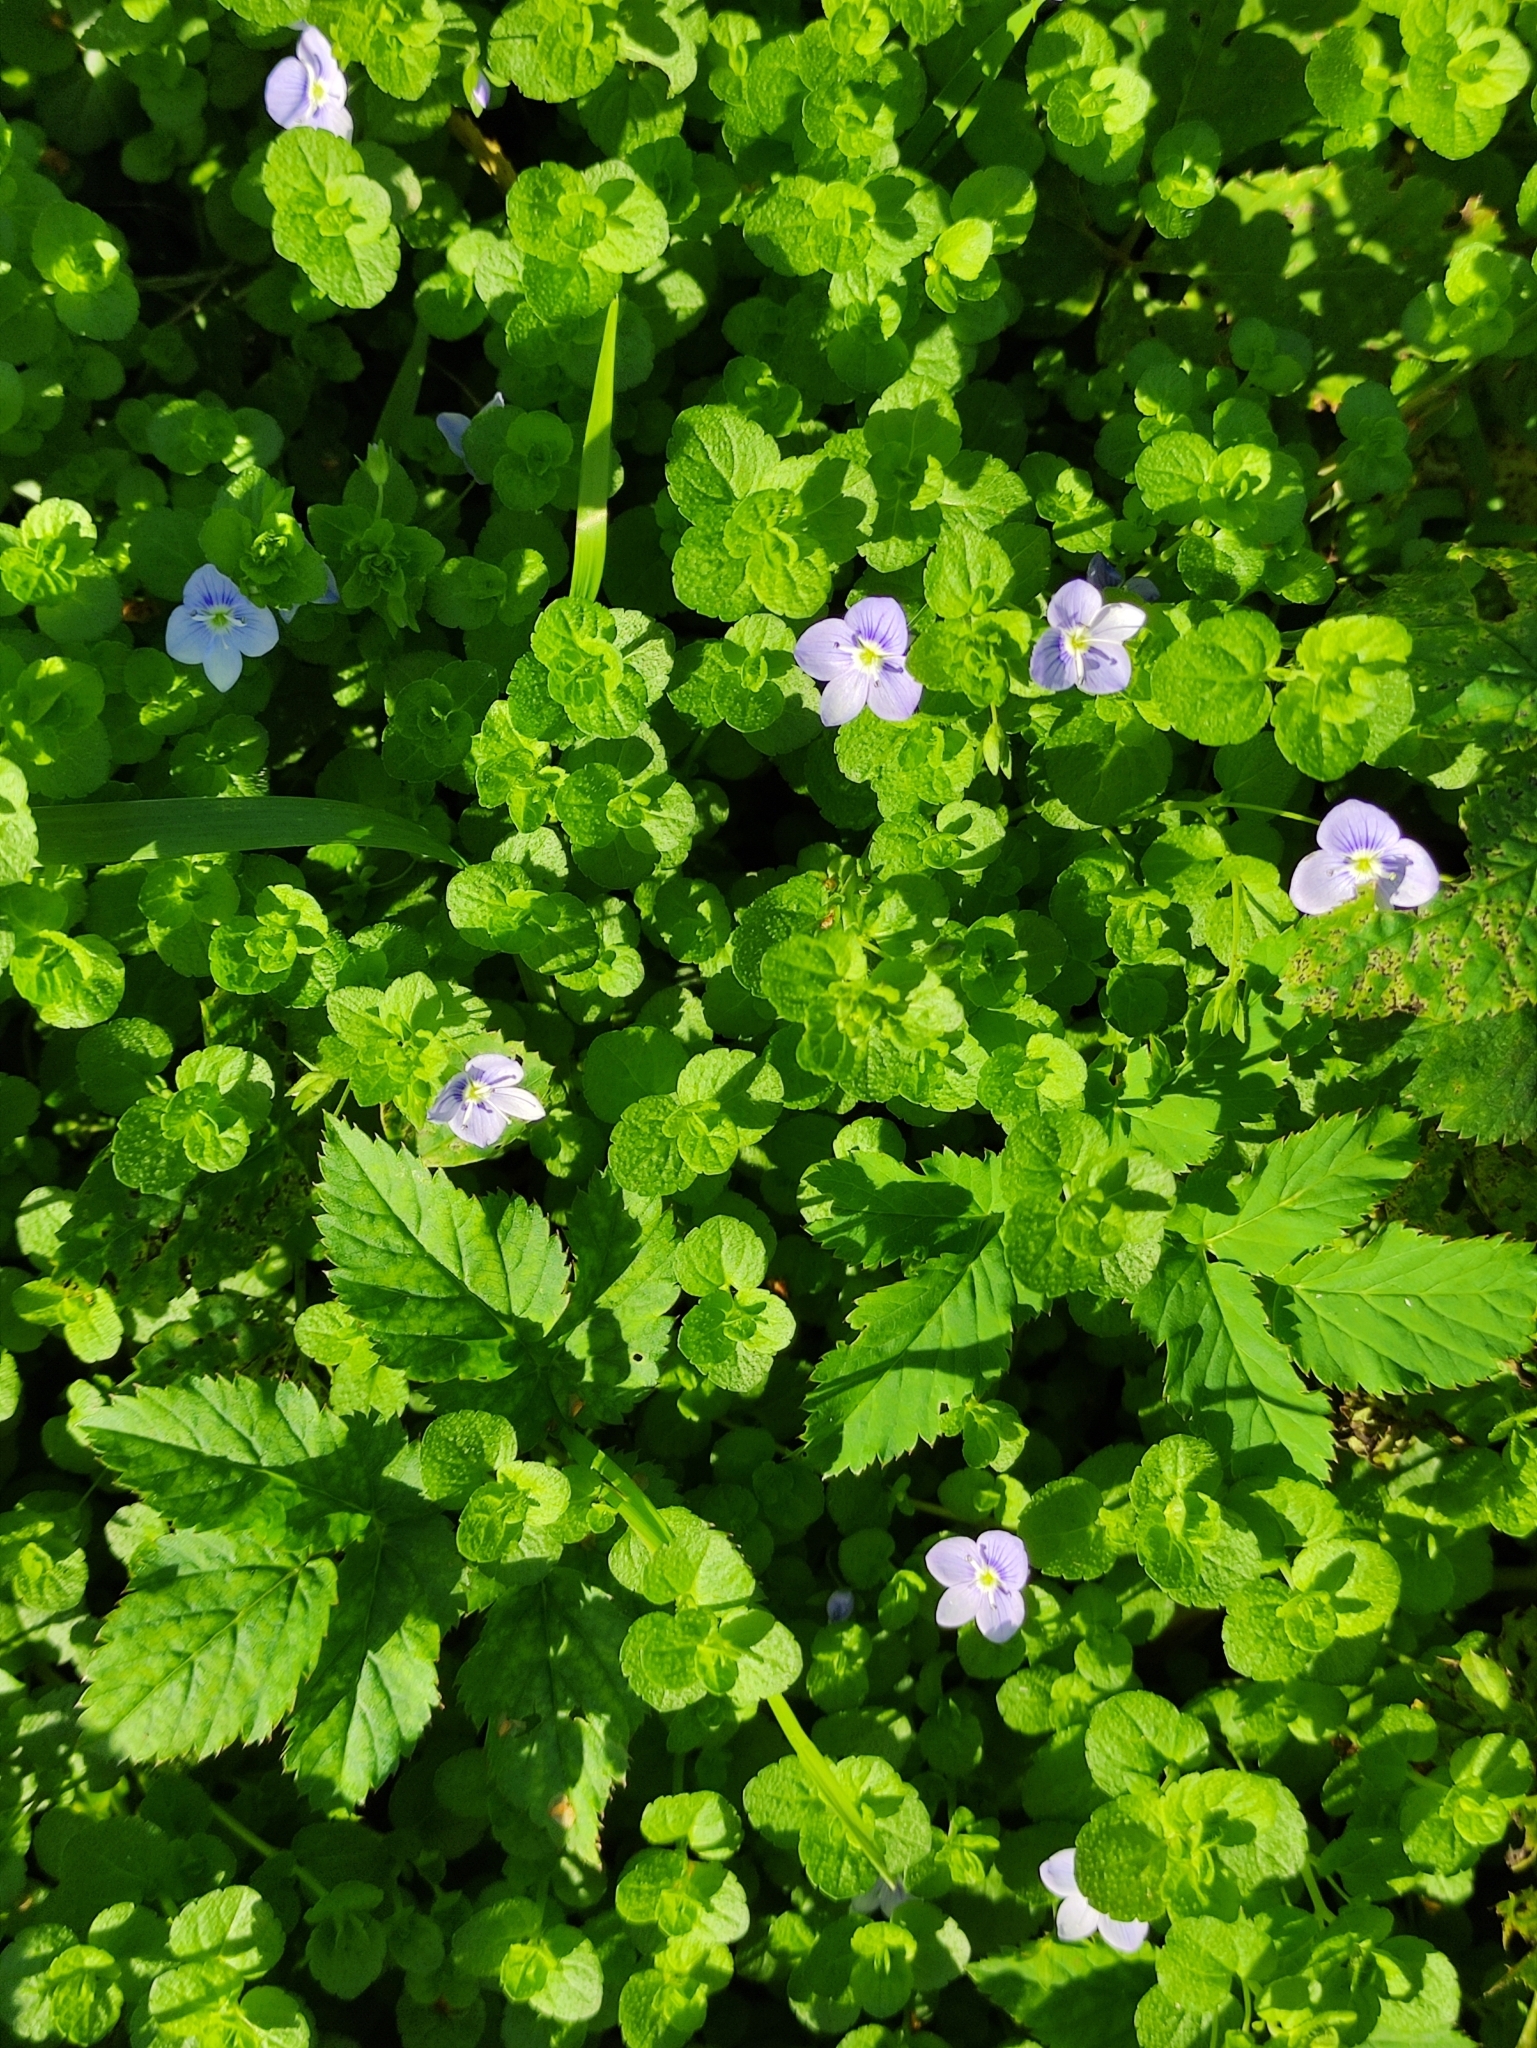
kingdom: Plantae
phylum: Tracheophyta
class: Magnoliopsida
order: Lamiales
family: Plantaginaceae
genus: Veronica
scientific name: Veronica filiformis
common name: Slender speedwell
